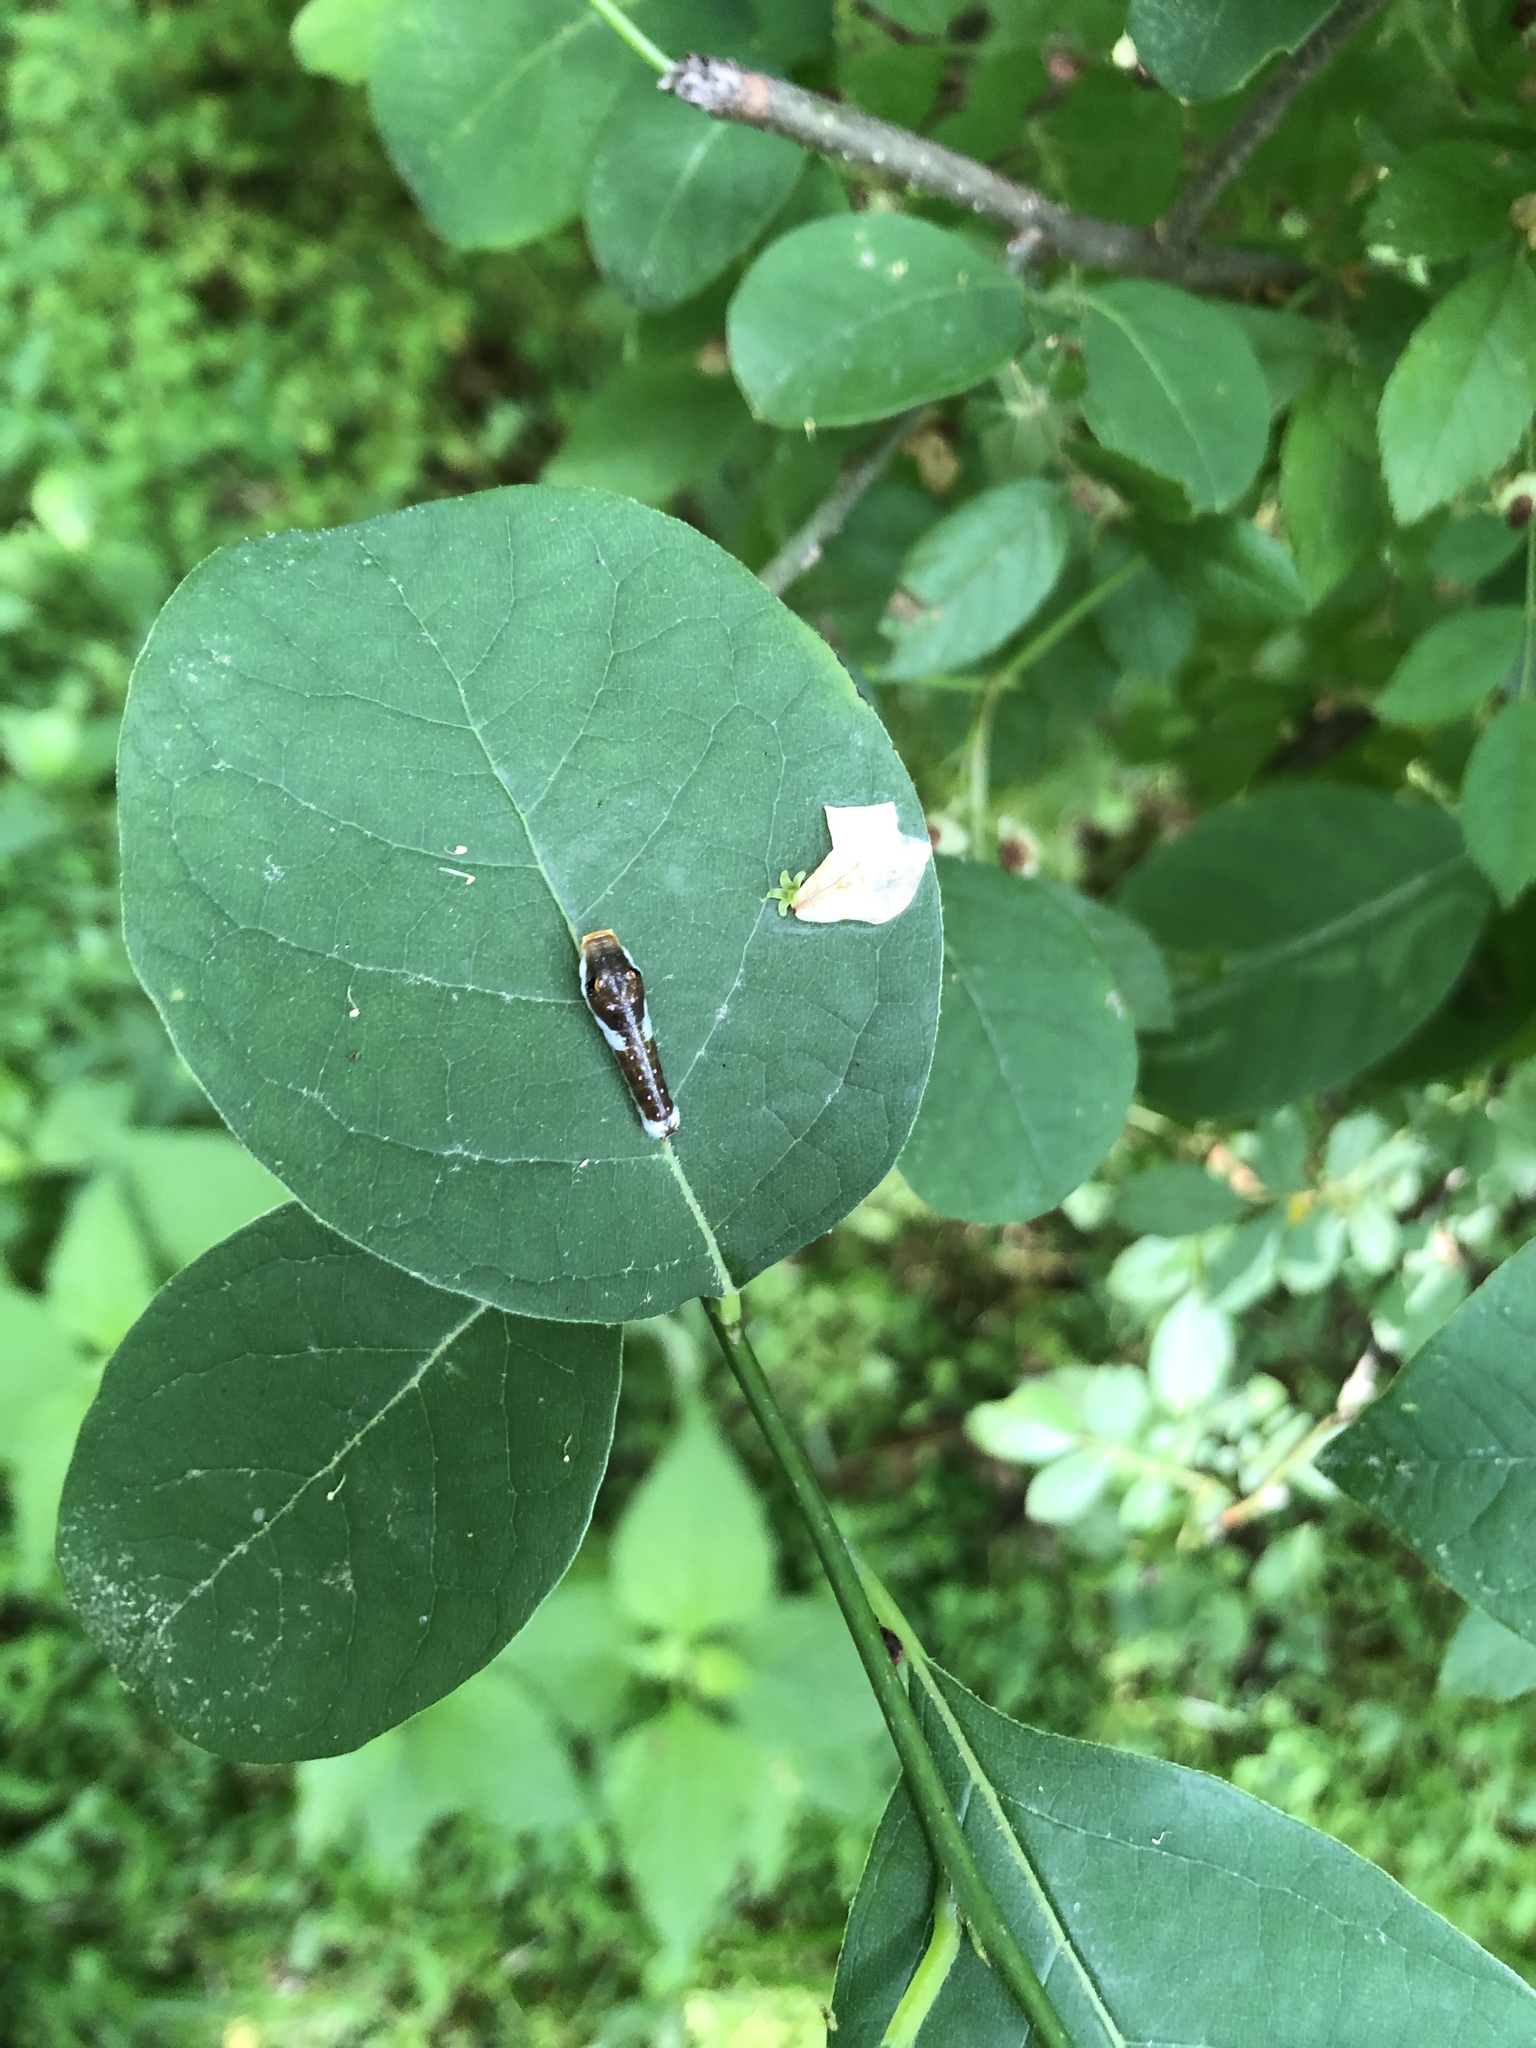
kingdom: Animalia
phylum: Arthropoda
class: Insecta
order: Lepidoptera
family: Papilionidae
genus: Papilio
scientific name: Papilio troilus
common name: Spicebush swallowtail
